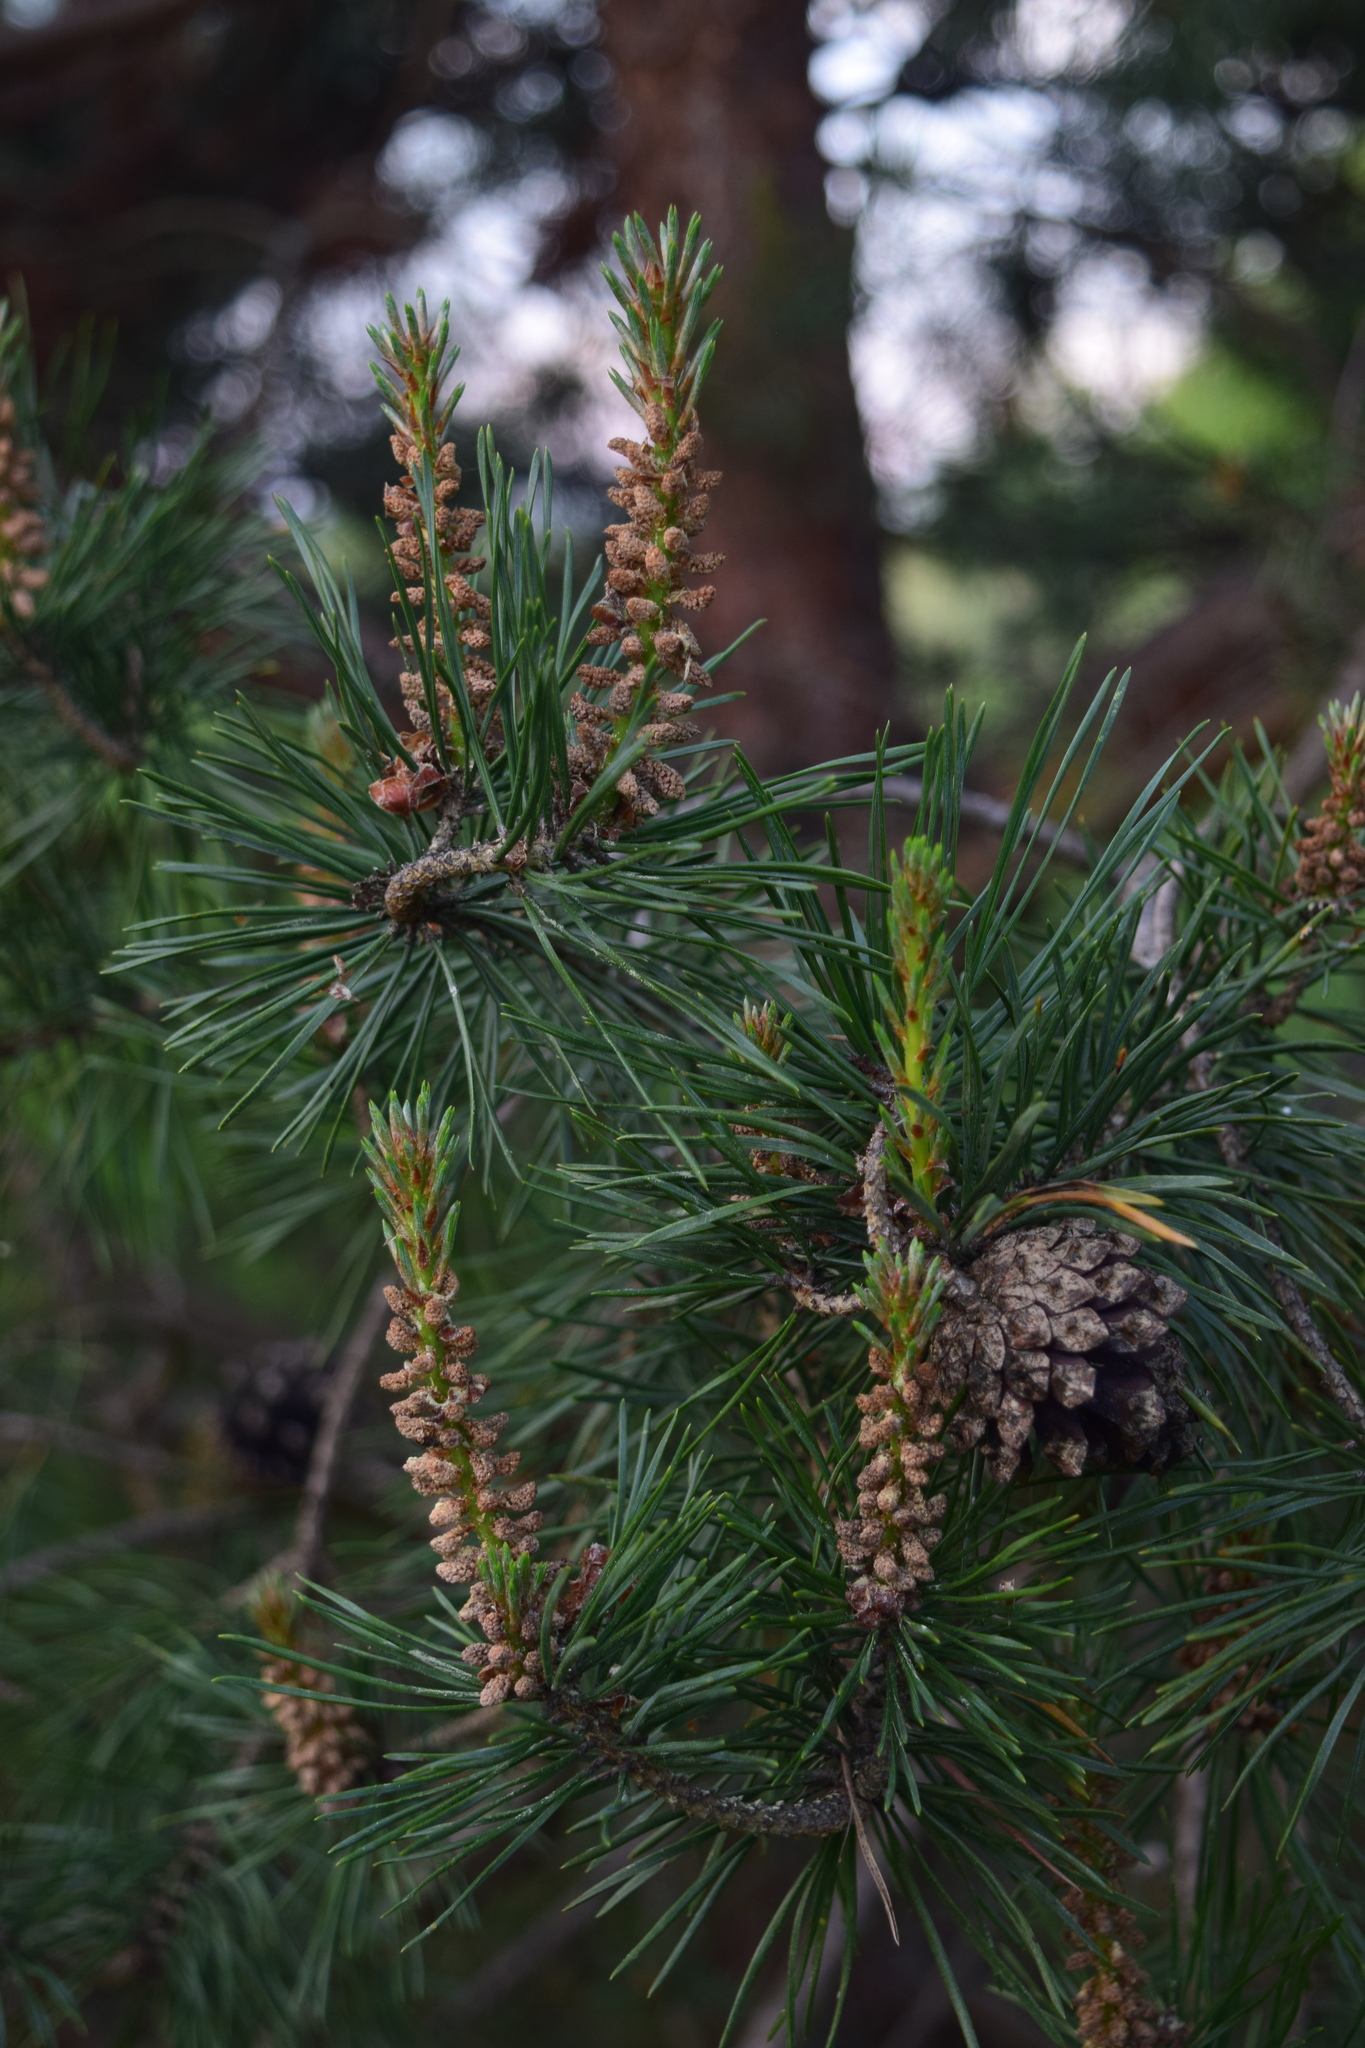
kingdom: Plantae
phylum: Tracheophyta
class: Pinopsida
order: Pinales
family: Pinaceae
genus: Pinus
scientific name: Pinus sylvestris
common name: Scots pine
